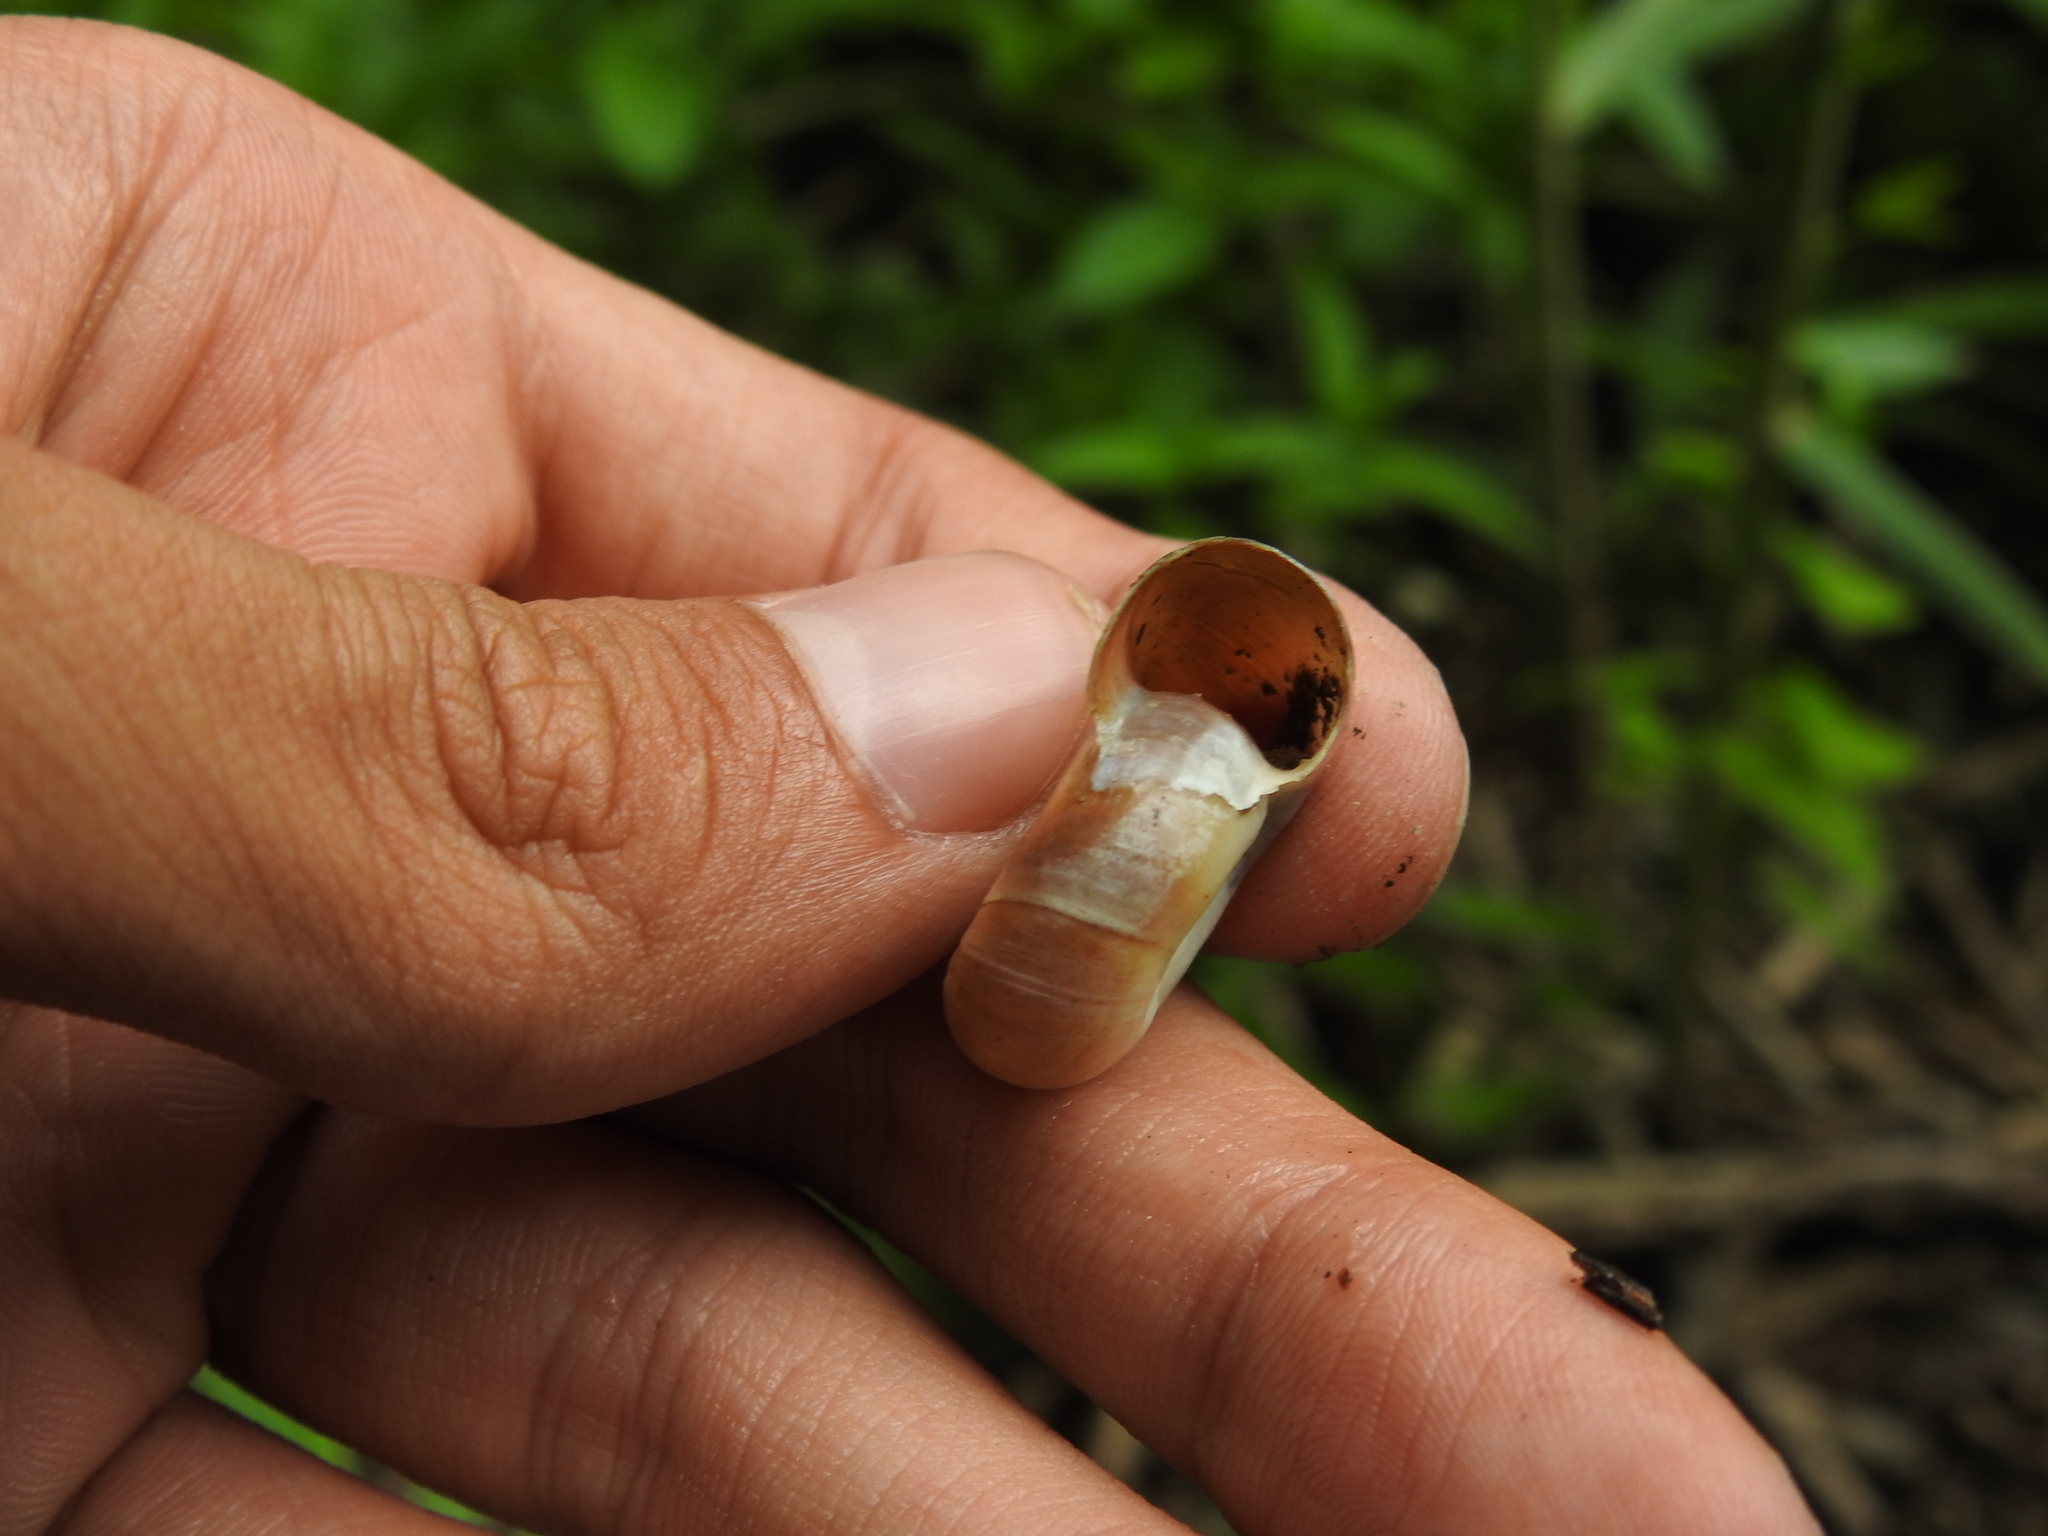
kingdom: Animalia
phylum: Mollusca
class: Gastropoda
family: Planorbidae
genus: Planorbarius
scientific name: Planorbarius corneus
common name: Great ramshorn
